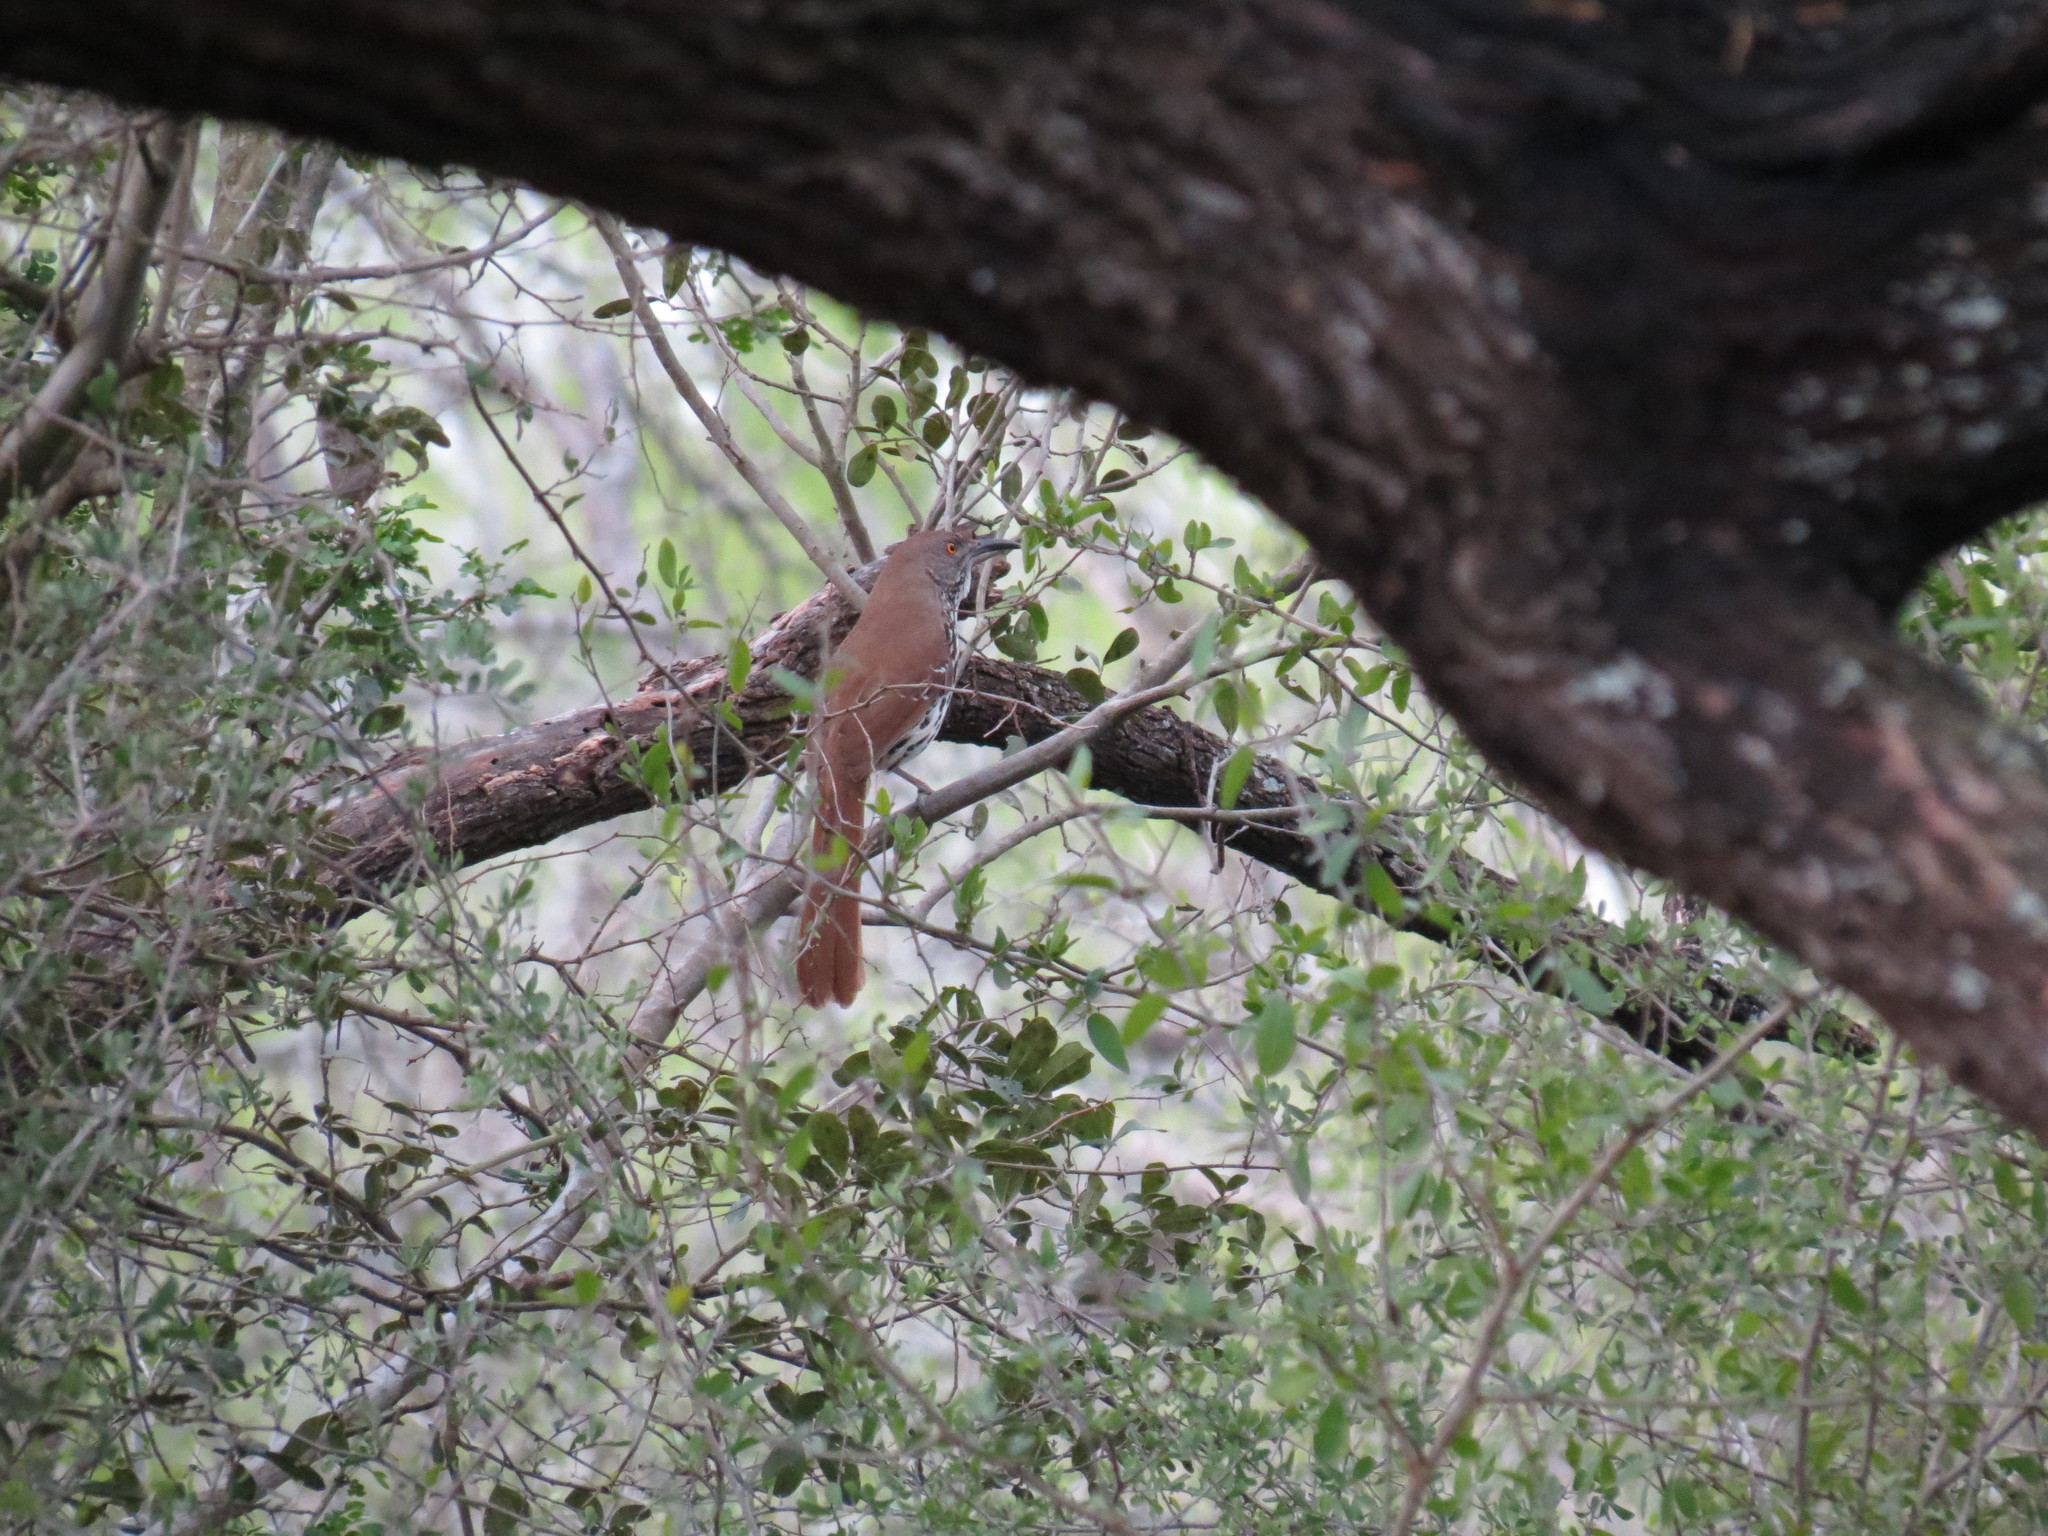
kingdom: Animalia
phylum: Chordata
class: Aves
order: Passeriformes
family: Mimidae
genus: Toxostoma
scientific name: Toxostoma longirostre
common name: Long-billed thrasher
